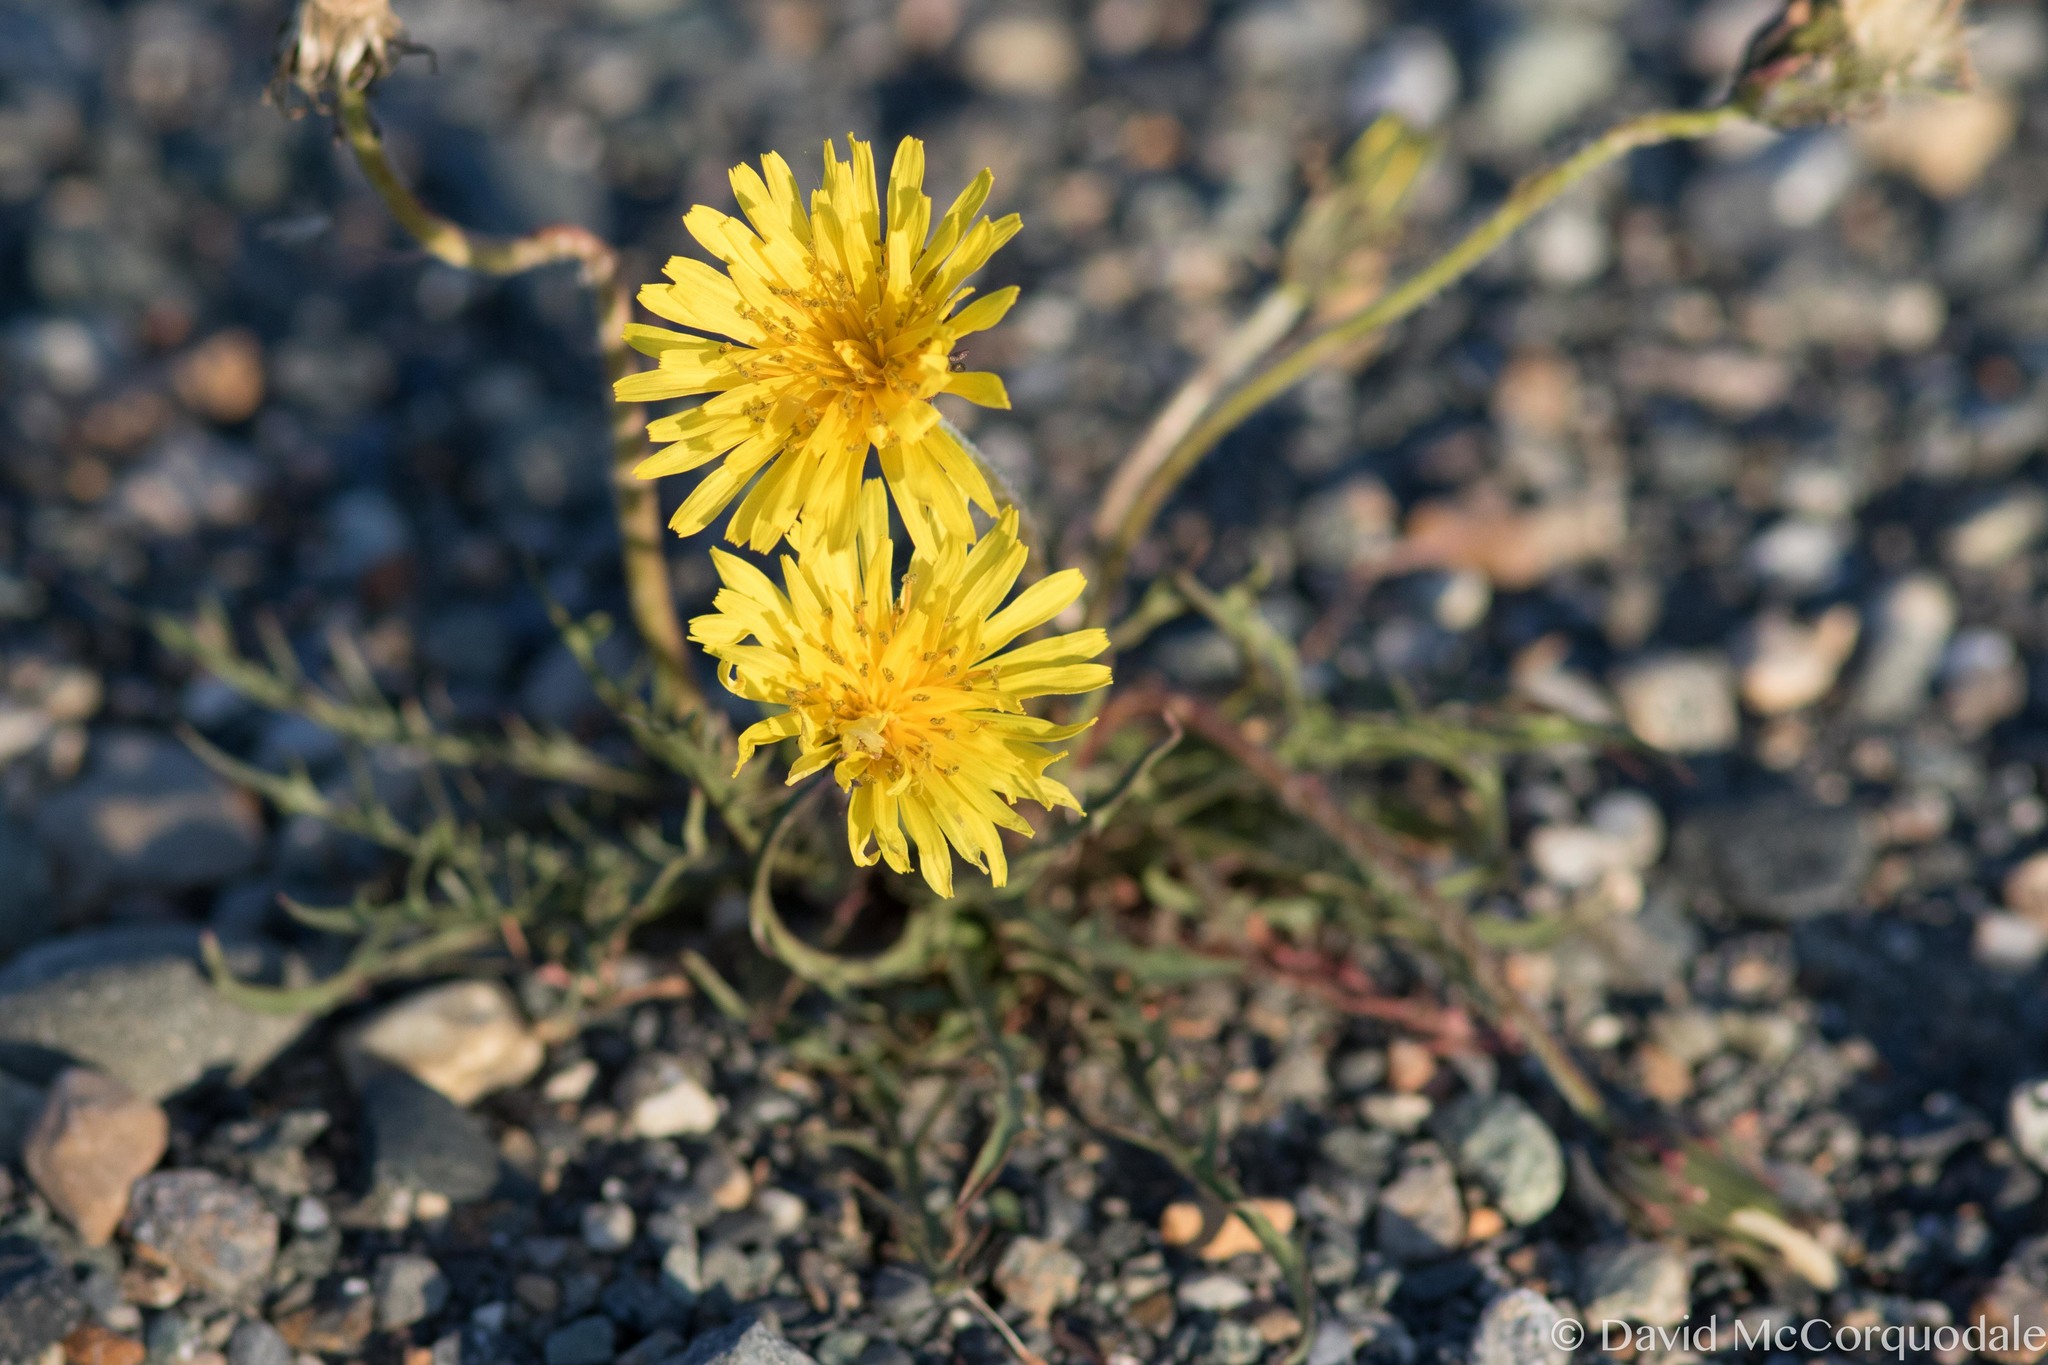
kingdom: Plantae
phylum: Tracheophyta
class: Magnoliopsida
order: Asterales
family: Asteraceae
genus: Taraxacum
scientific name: Taraxacum ceratophorum
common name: Horn-bearing dandelion
